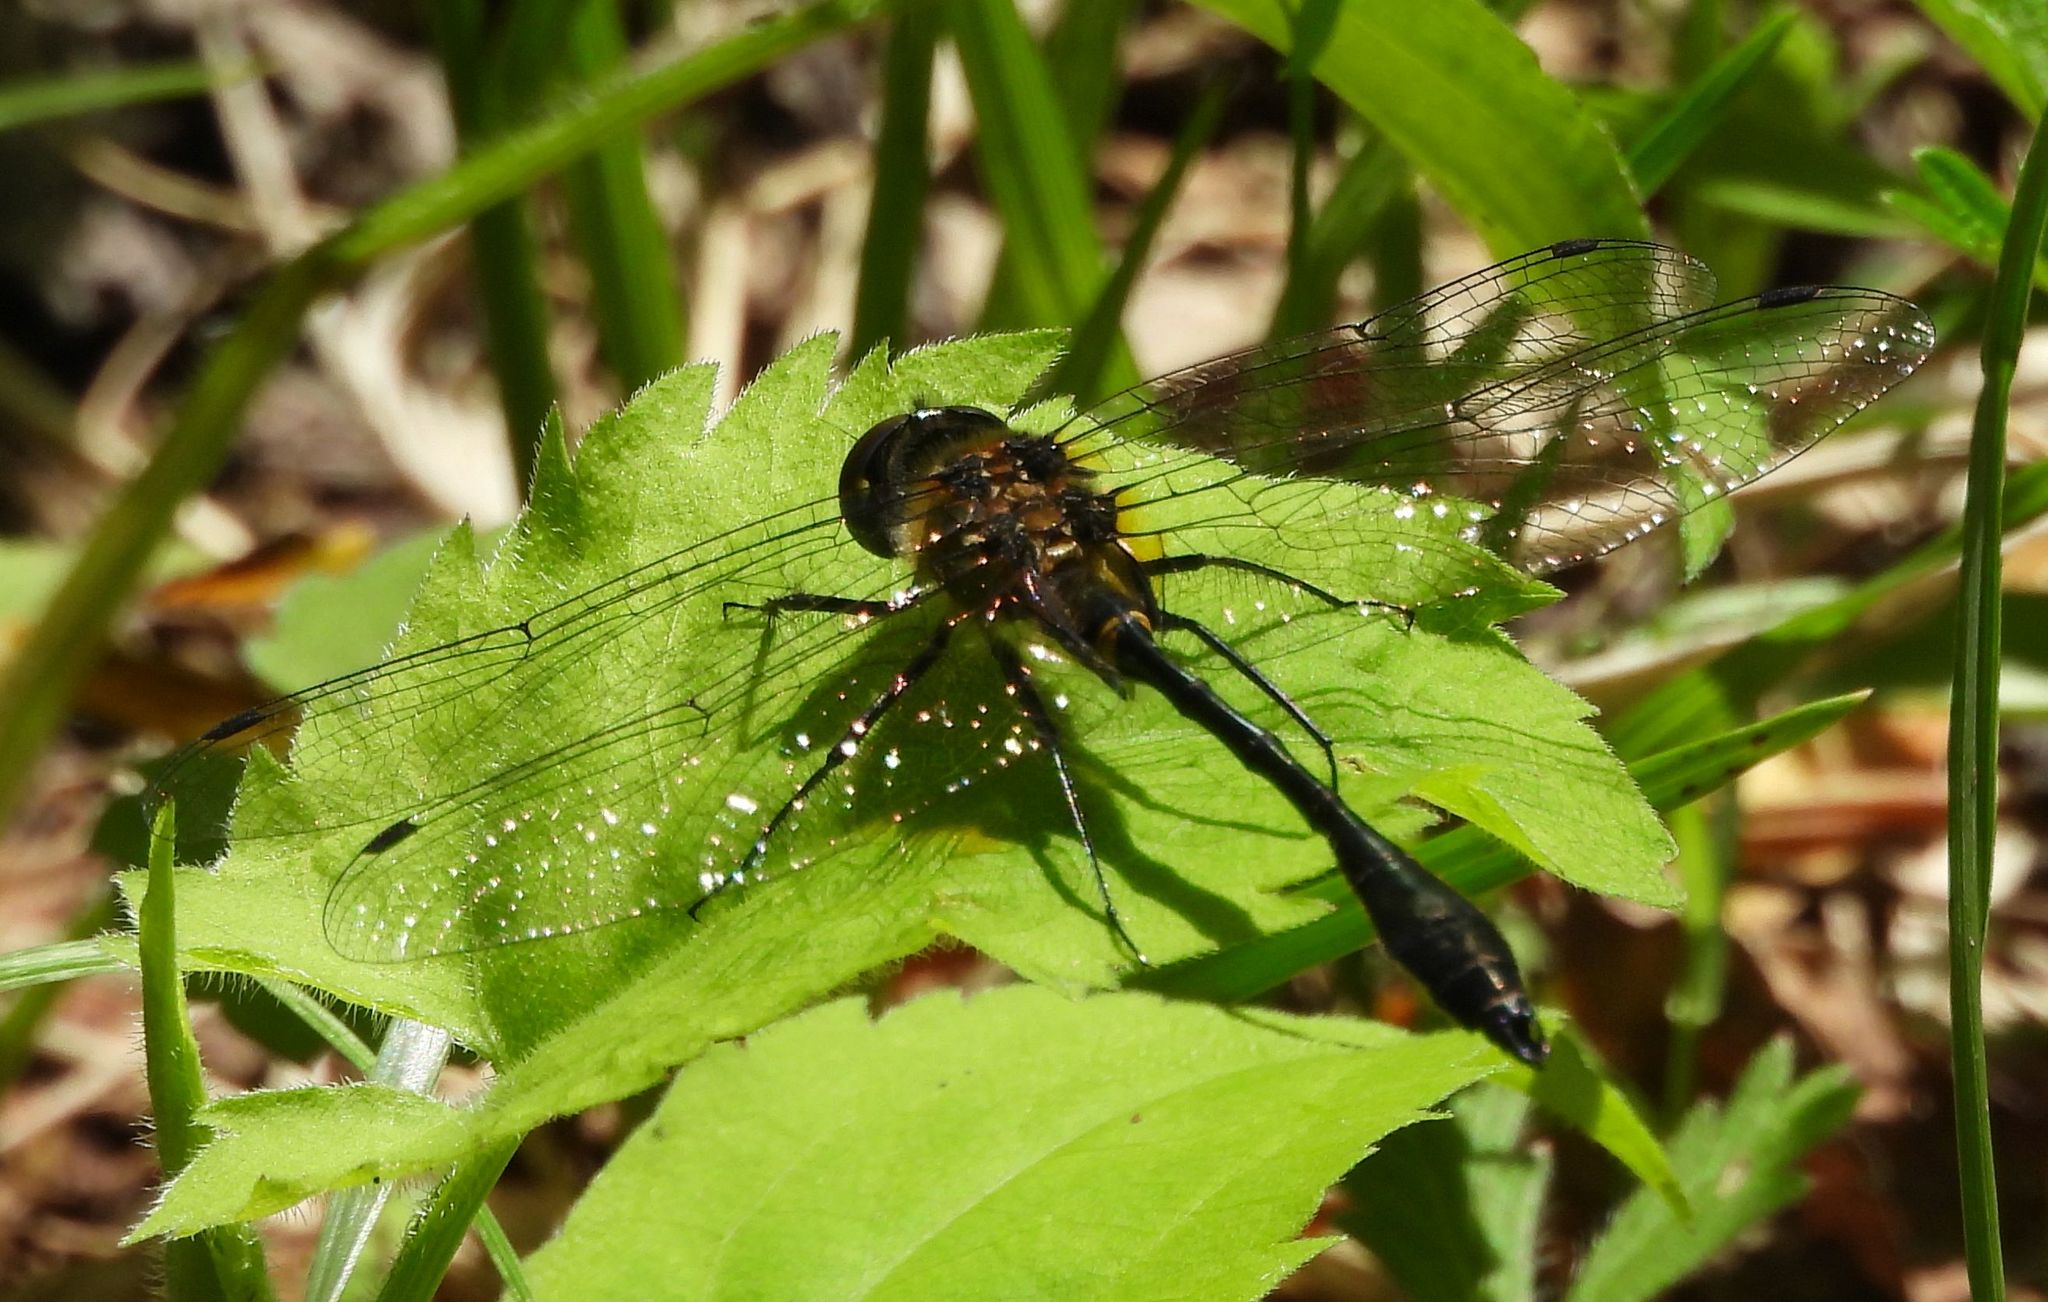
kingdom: Animalia
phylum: Arthropoda
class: Insecta
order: Odonata
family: Corduliidae
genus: Dorocordulia
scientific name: Dorocordulia libera
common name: Racket-tailed emerald
